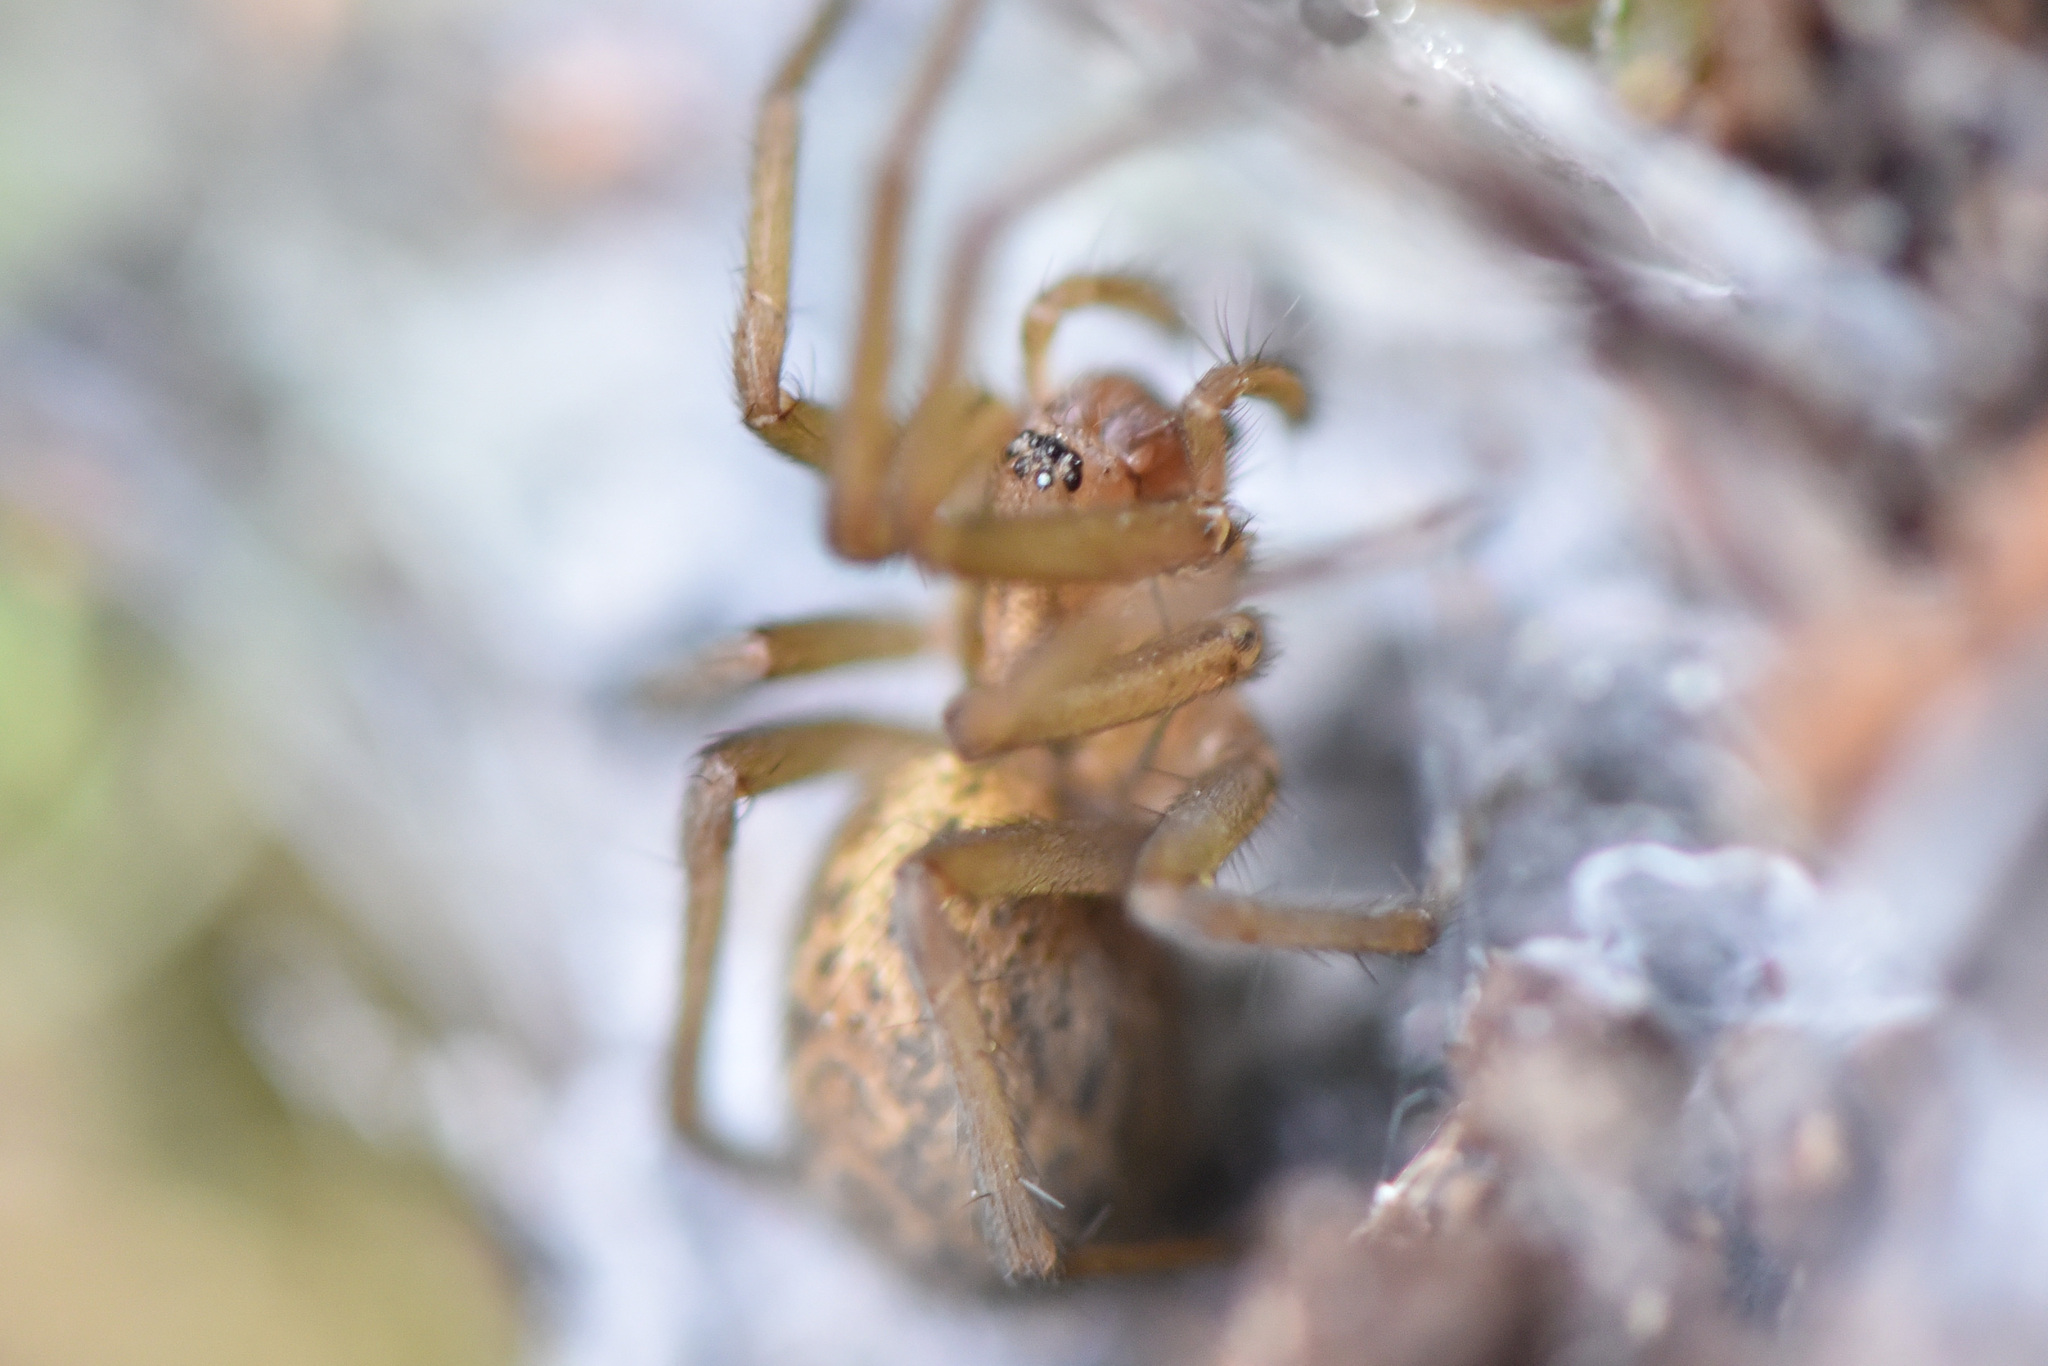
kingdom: Animalia
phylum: Arthropoda
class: Arachnida
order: Araneae
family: Agelenidae
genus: Eratigena
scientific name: Eratigena agrestis
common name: Hobo spider
